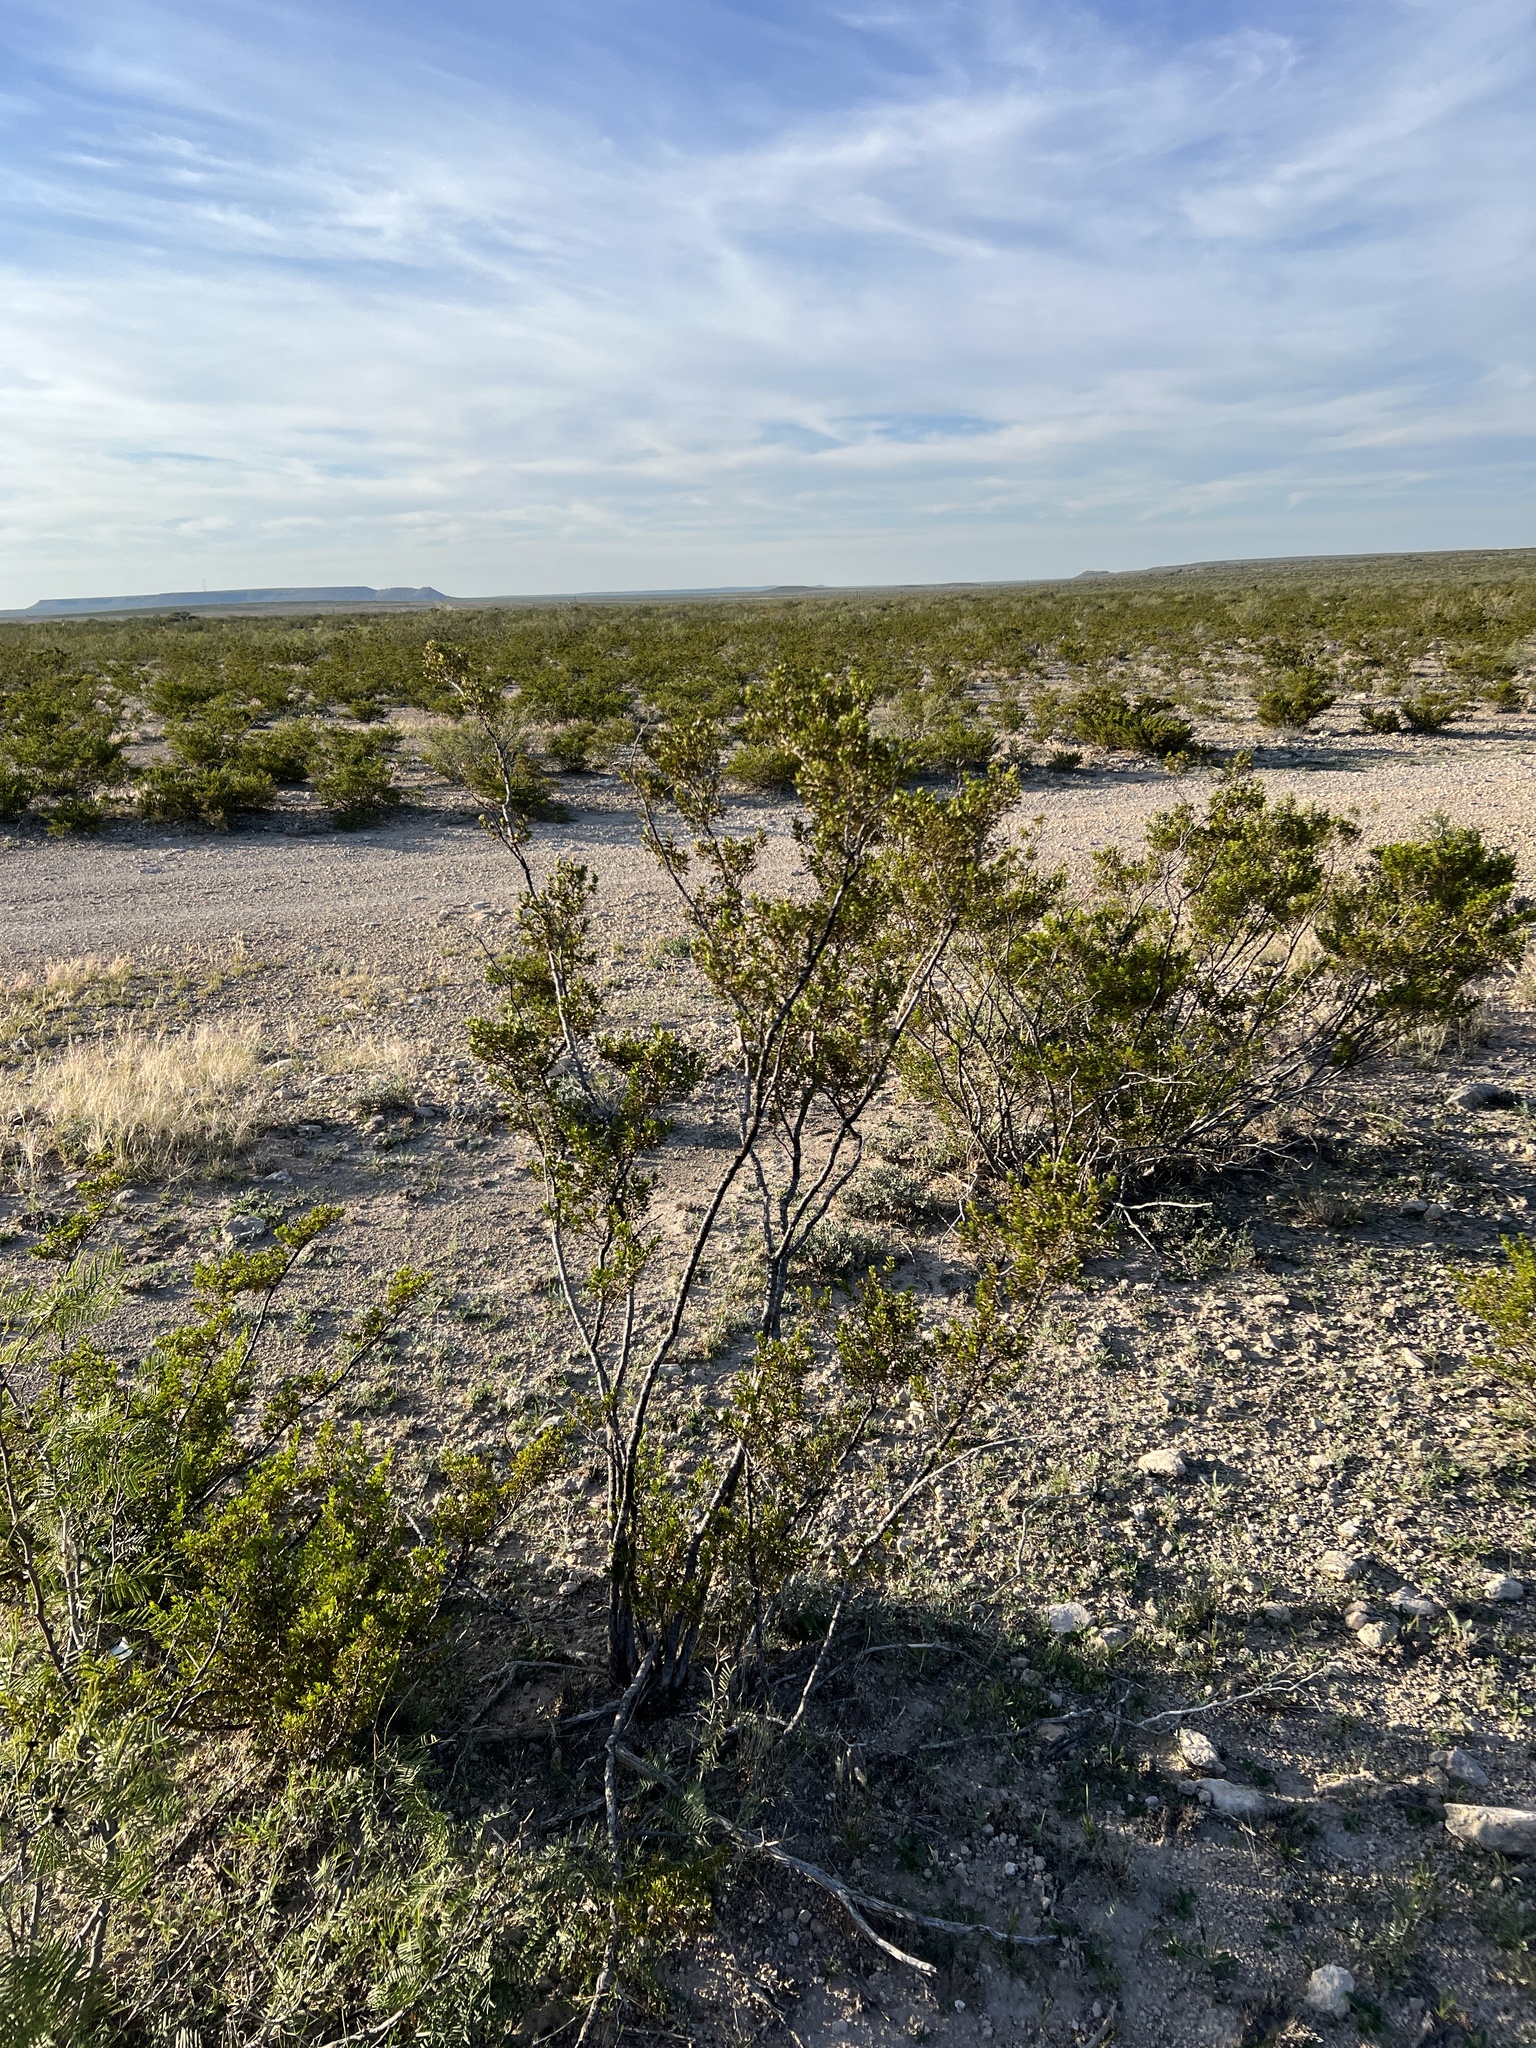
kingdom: Plantae
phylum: Tracheophyta
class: Magnoliopsida
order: Zygophyllales
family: Zygophyllaceae
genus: Larrea
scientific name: Larrea tridentata
